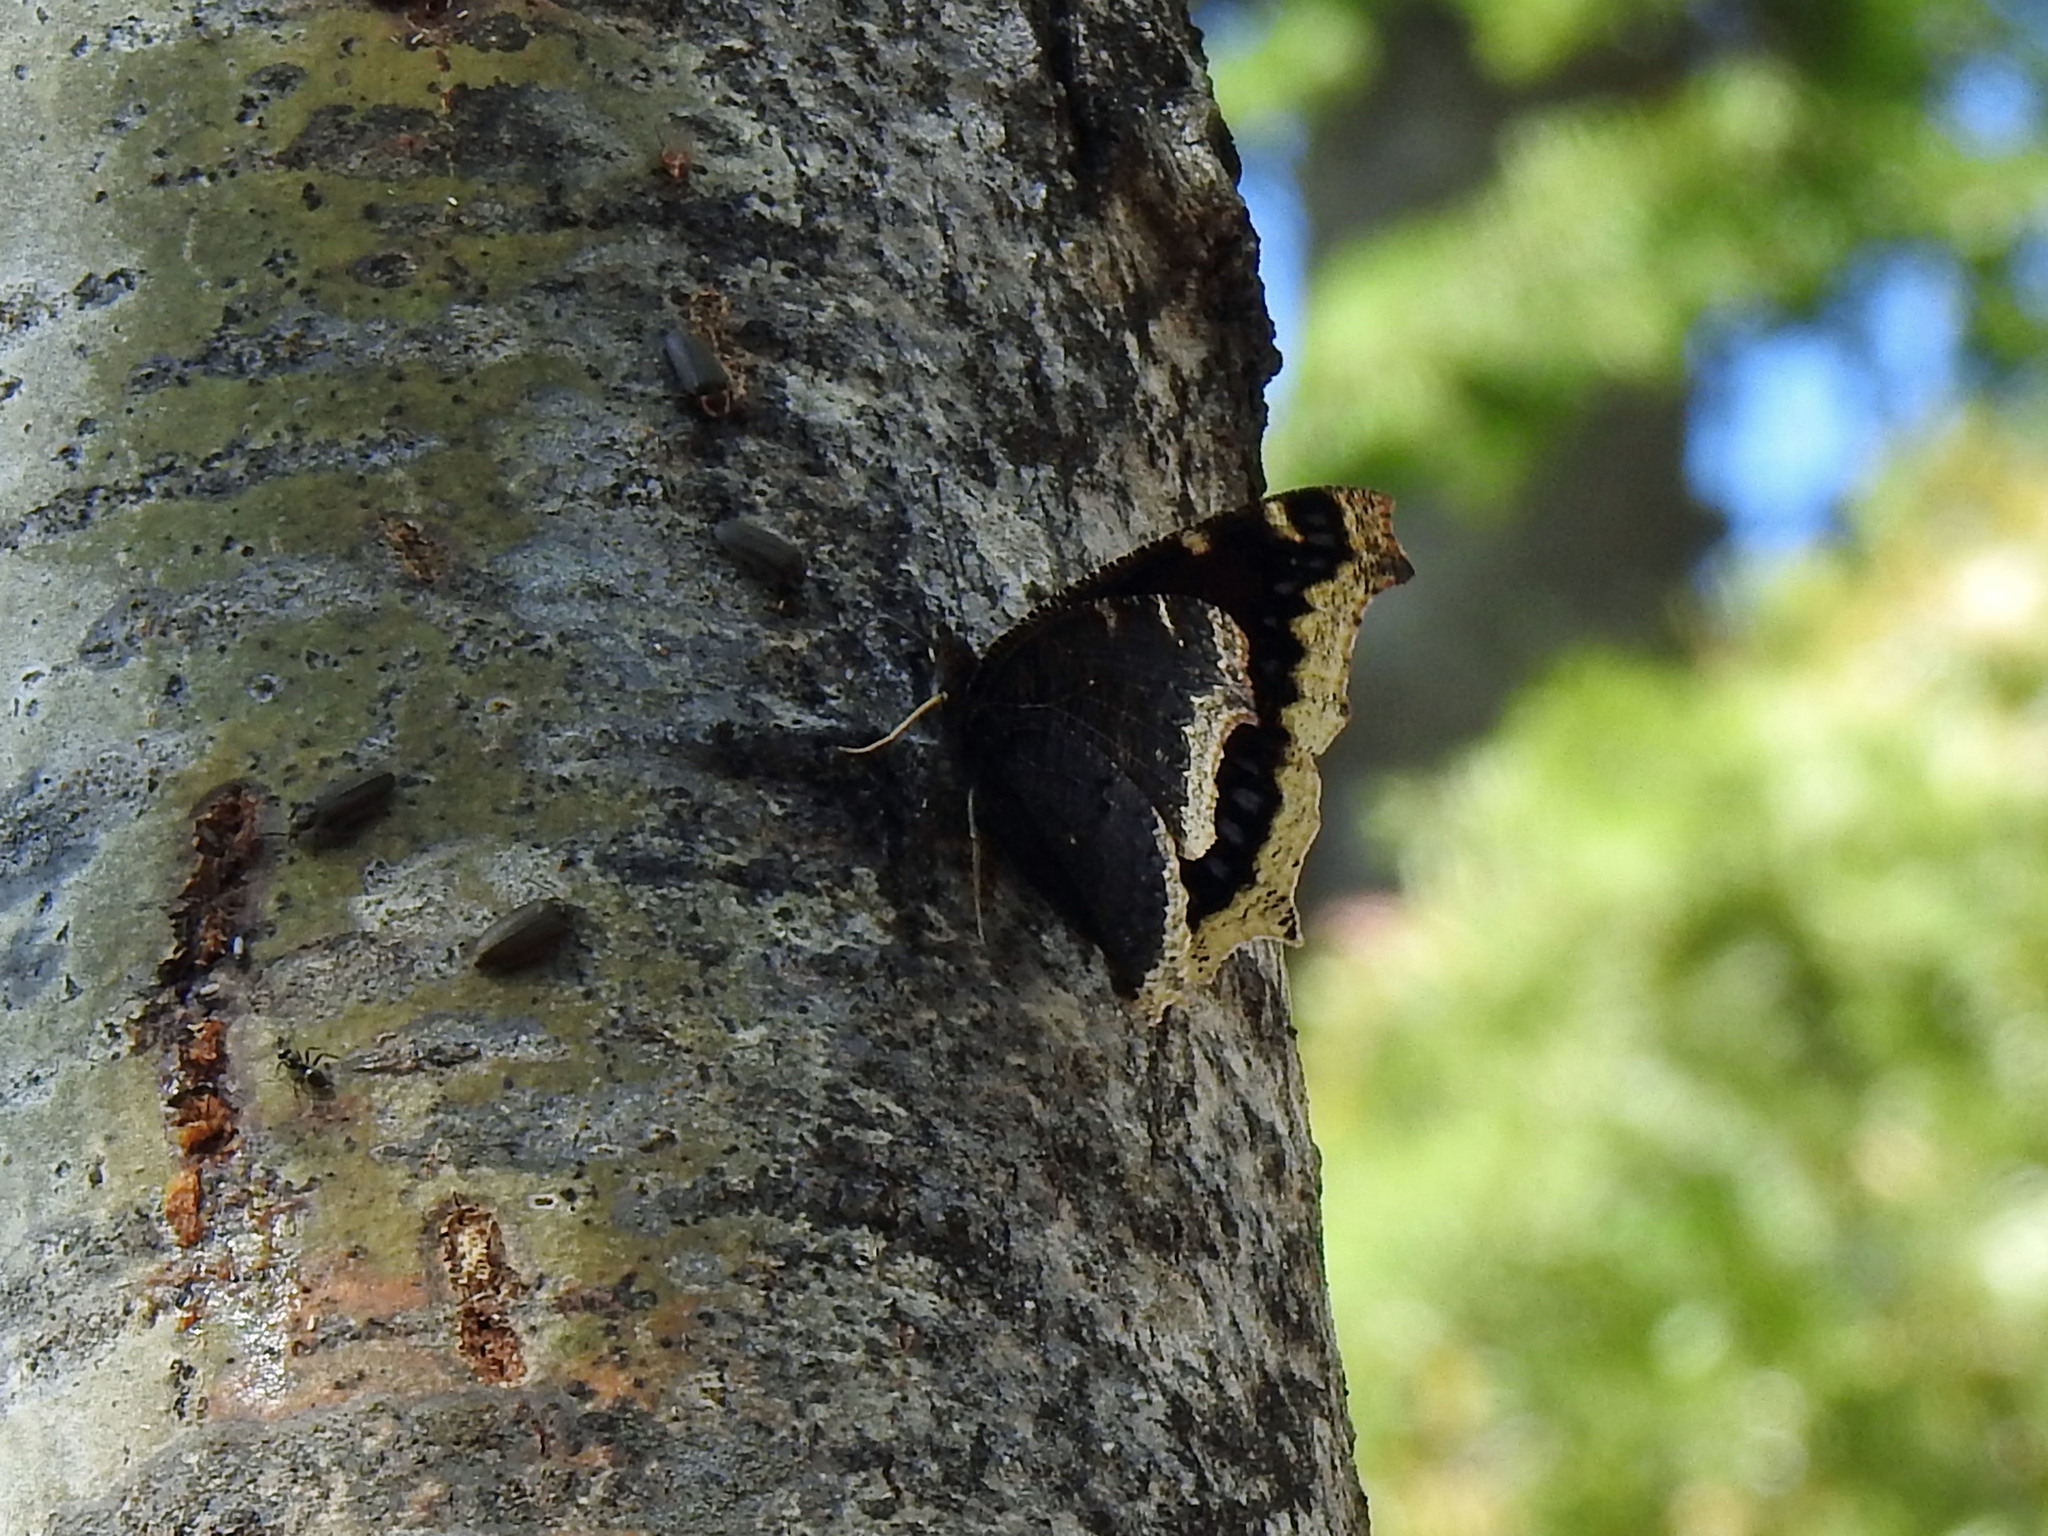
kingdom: Animalia
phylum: Arthropoda
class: Insecta
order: Lepidoptera
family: Nymphalidae
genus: Nymphalis
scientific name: Nymphalis antiopa
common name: Camberwell beauty
